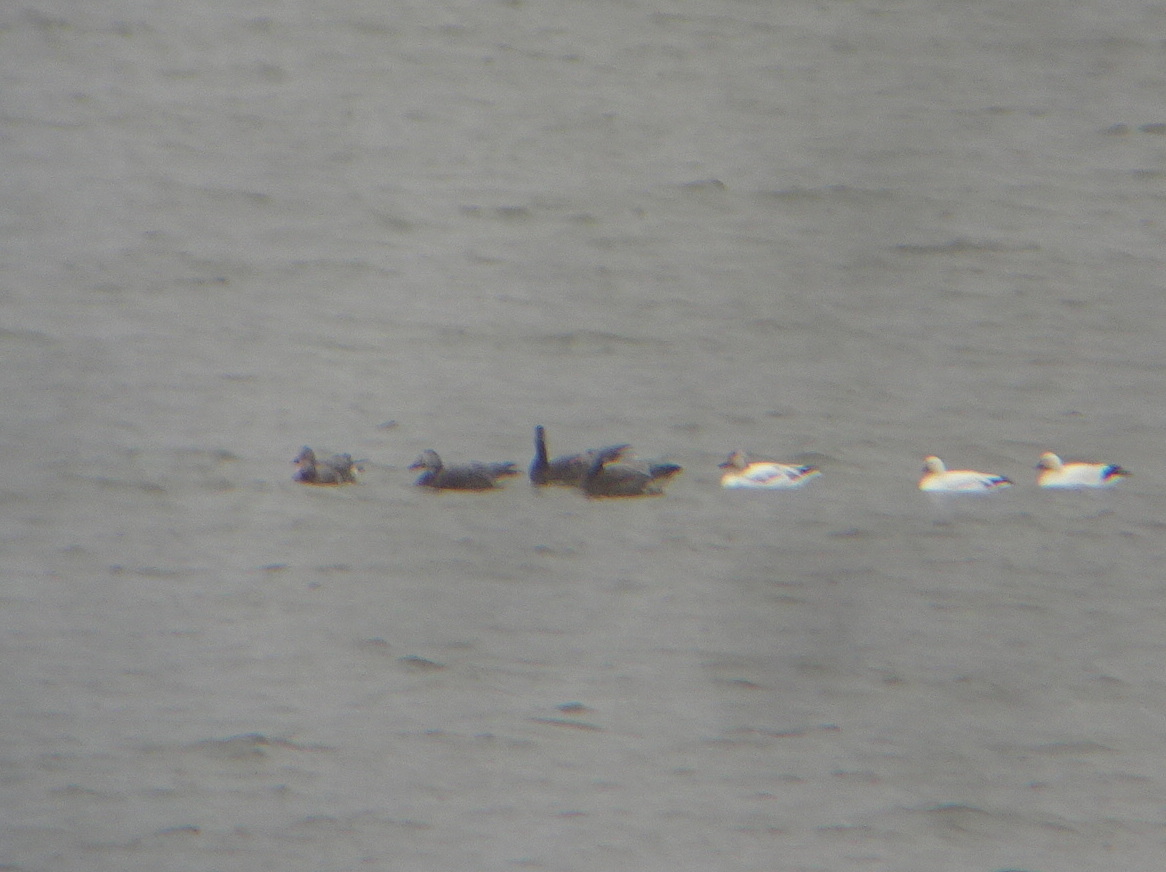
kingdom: Animalia
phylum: Chordata
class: Aves
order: Anseriformes
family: Anatidae
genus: Anser
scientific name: Anser caerulescens
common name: Snow goose
